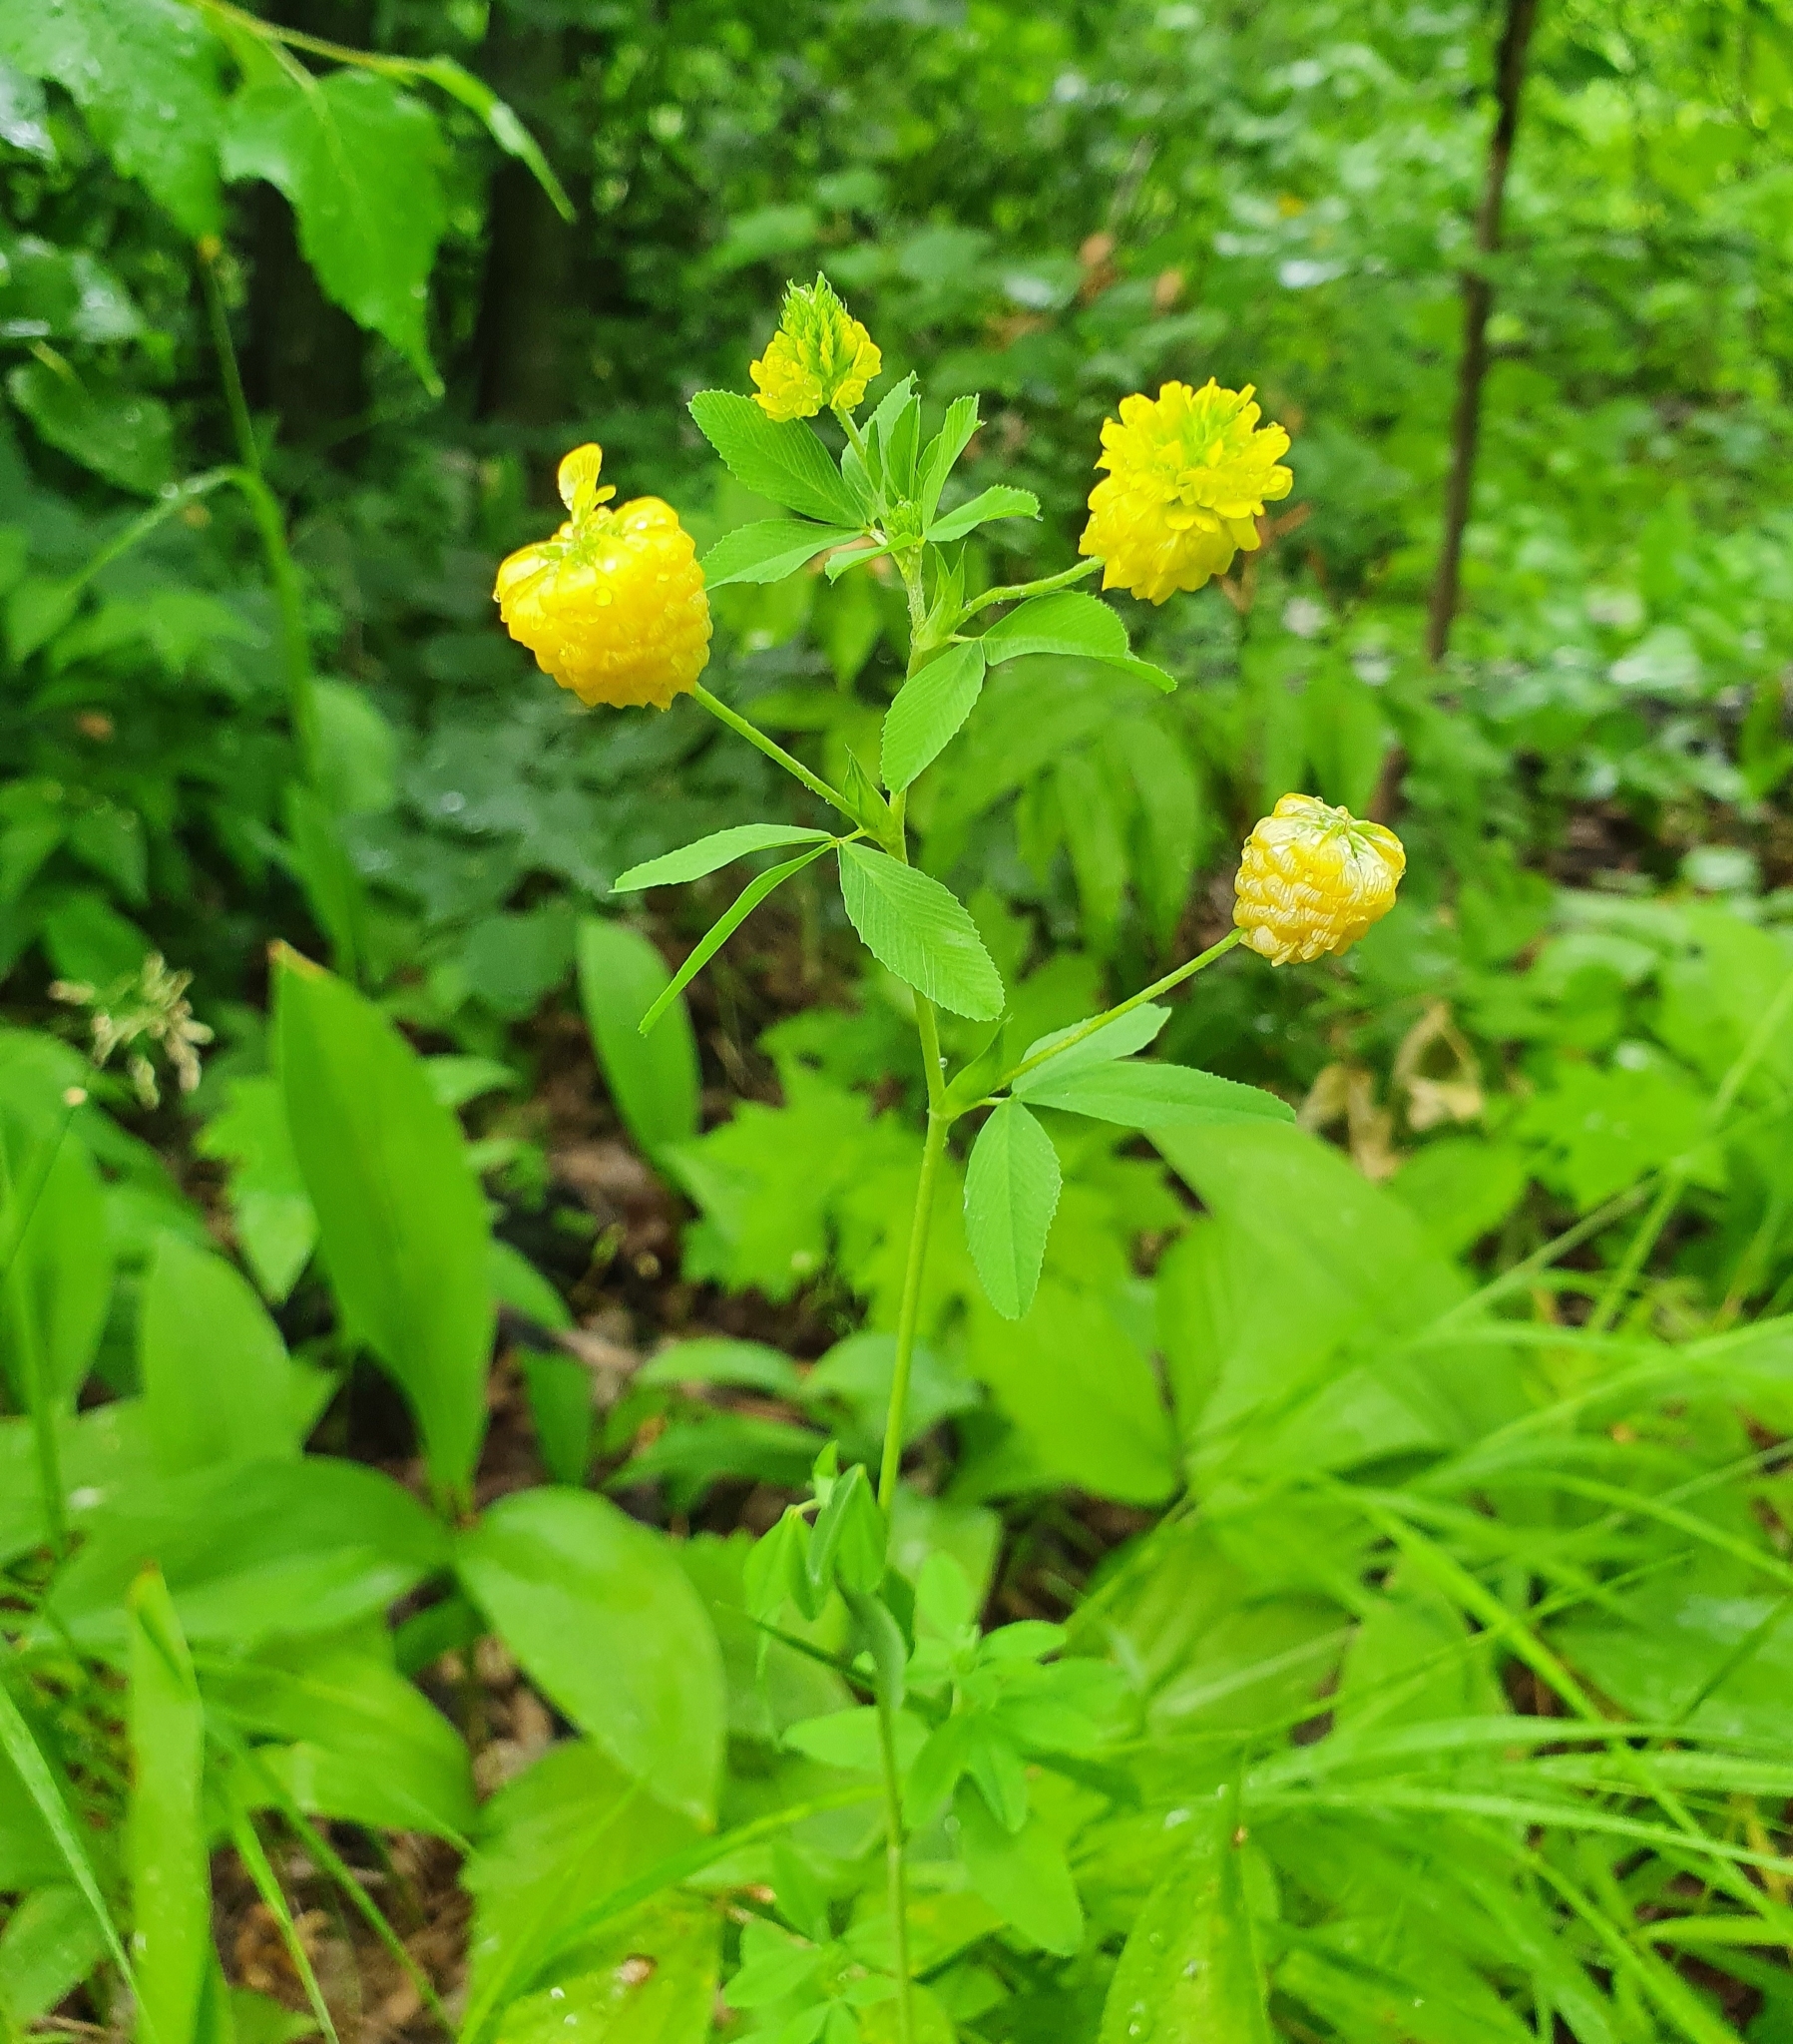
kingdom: Plantae
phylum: Tracheophyta
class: Magnoliopsida
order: Fabales
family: Fabaceae
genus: Trifolium
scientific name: Trifolium aureum
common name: Golden clover
